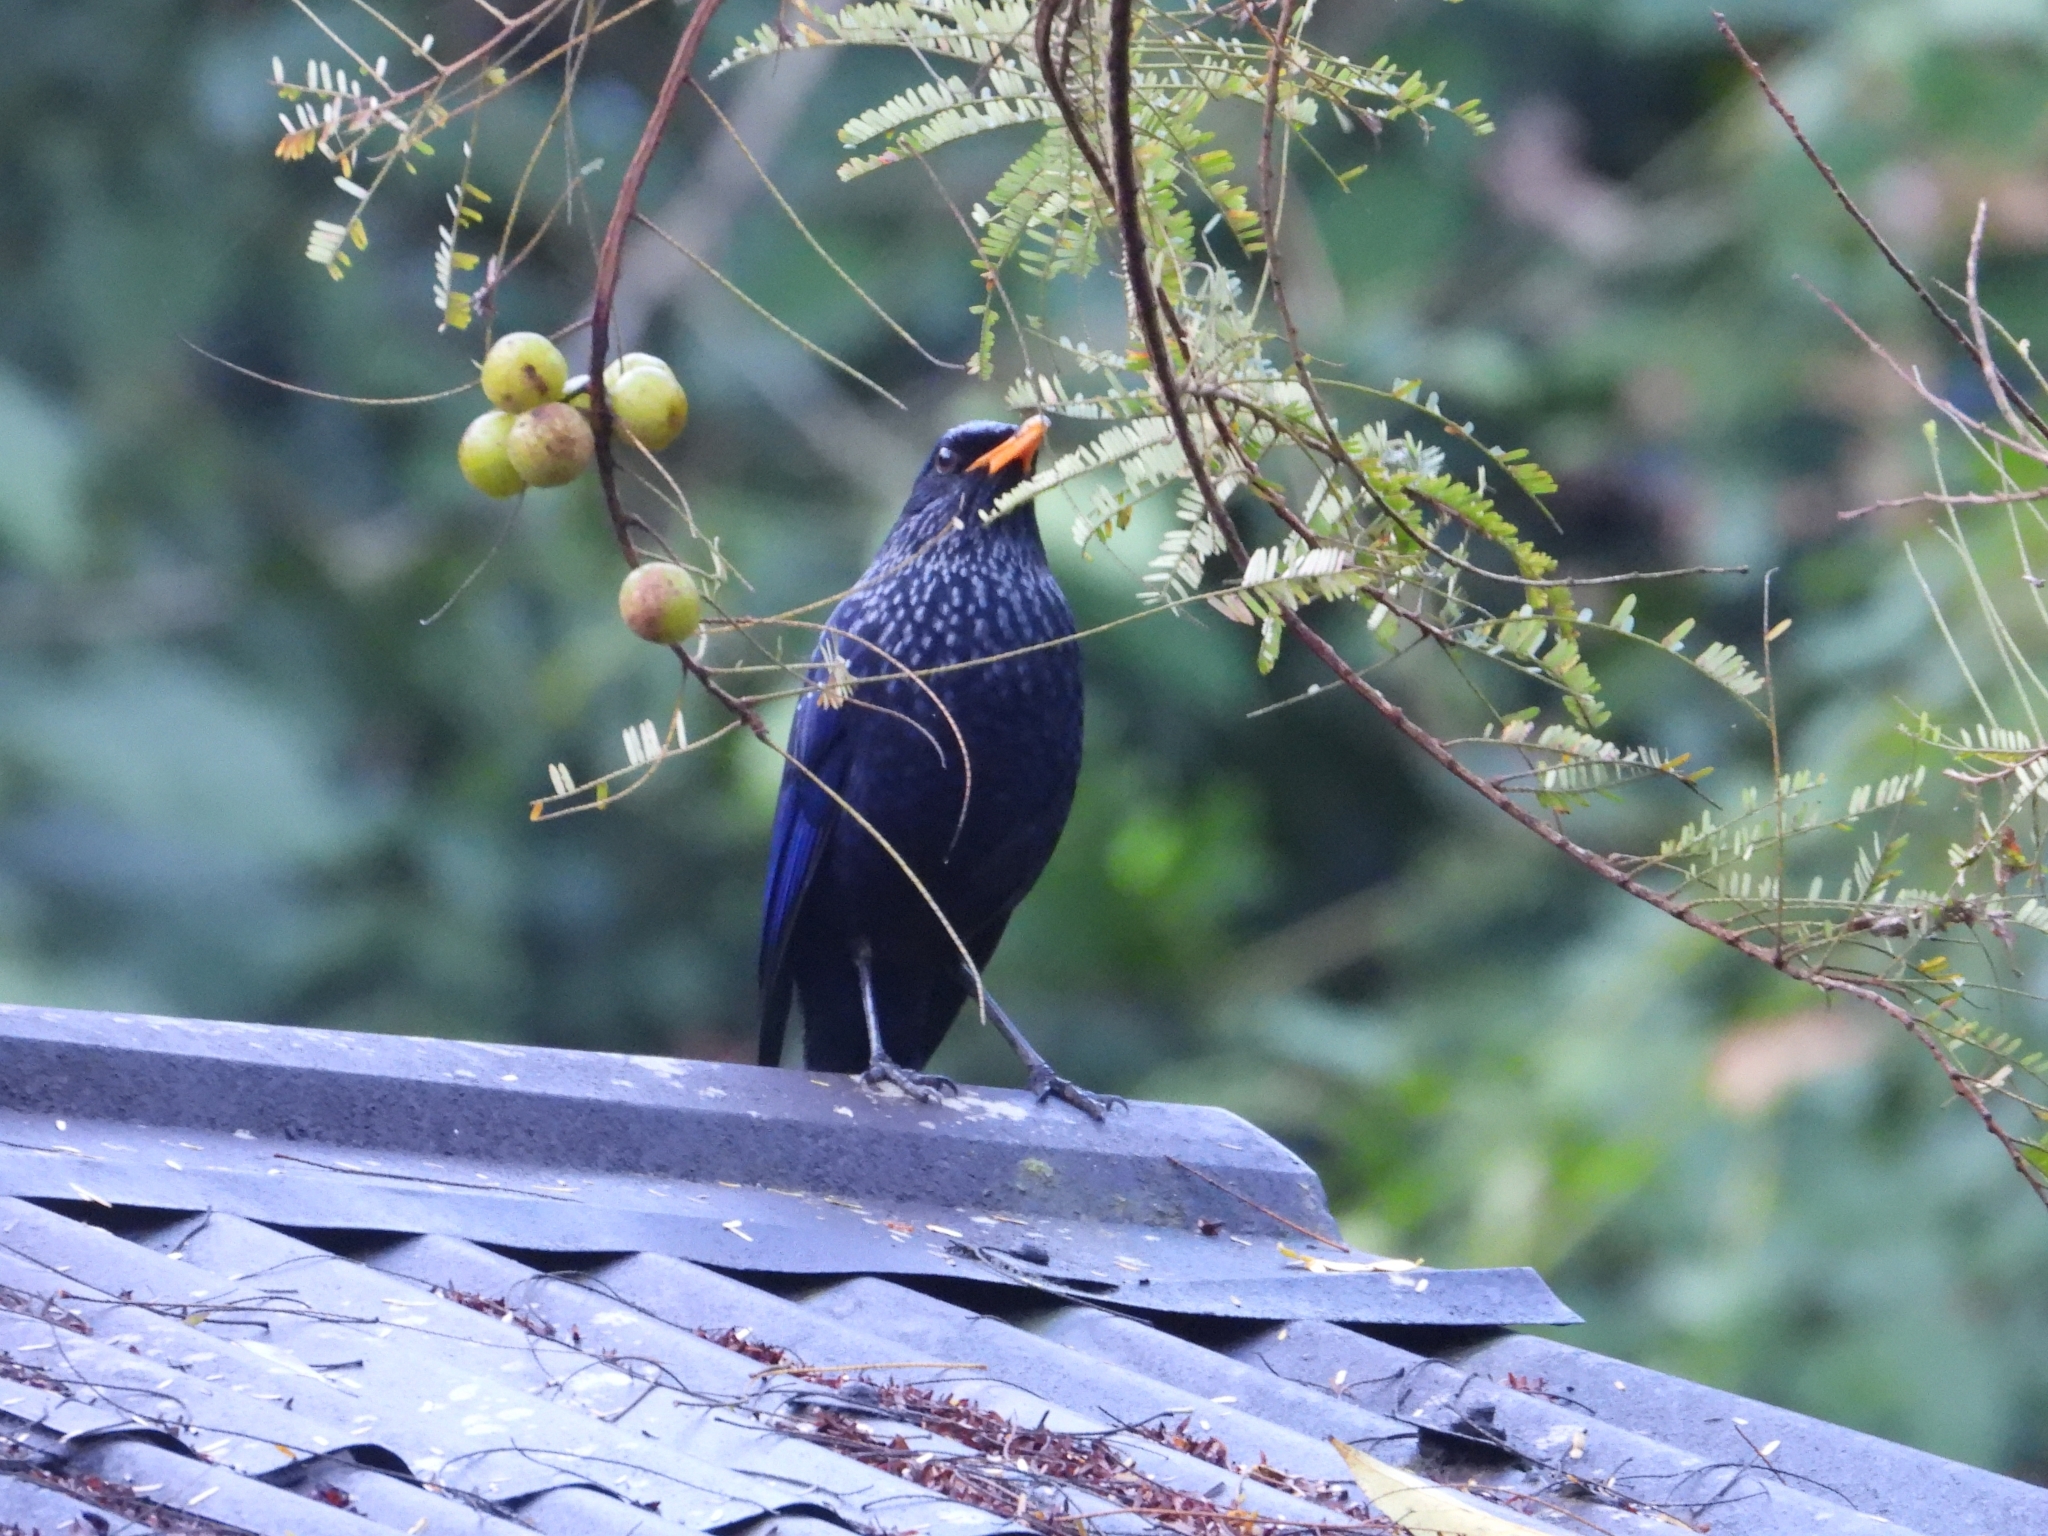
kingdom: Animalia
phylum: Chordata
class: Aves
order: Passeriformes
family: Muscicapidae
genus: Myophonus
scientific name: Myophonus caeruleus
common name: Blue whistling-thrush
